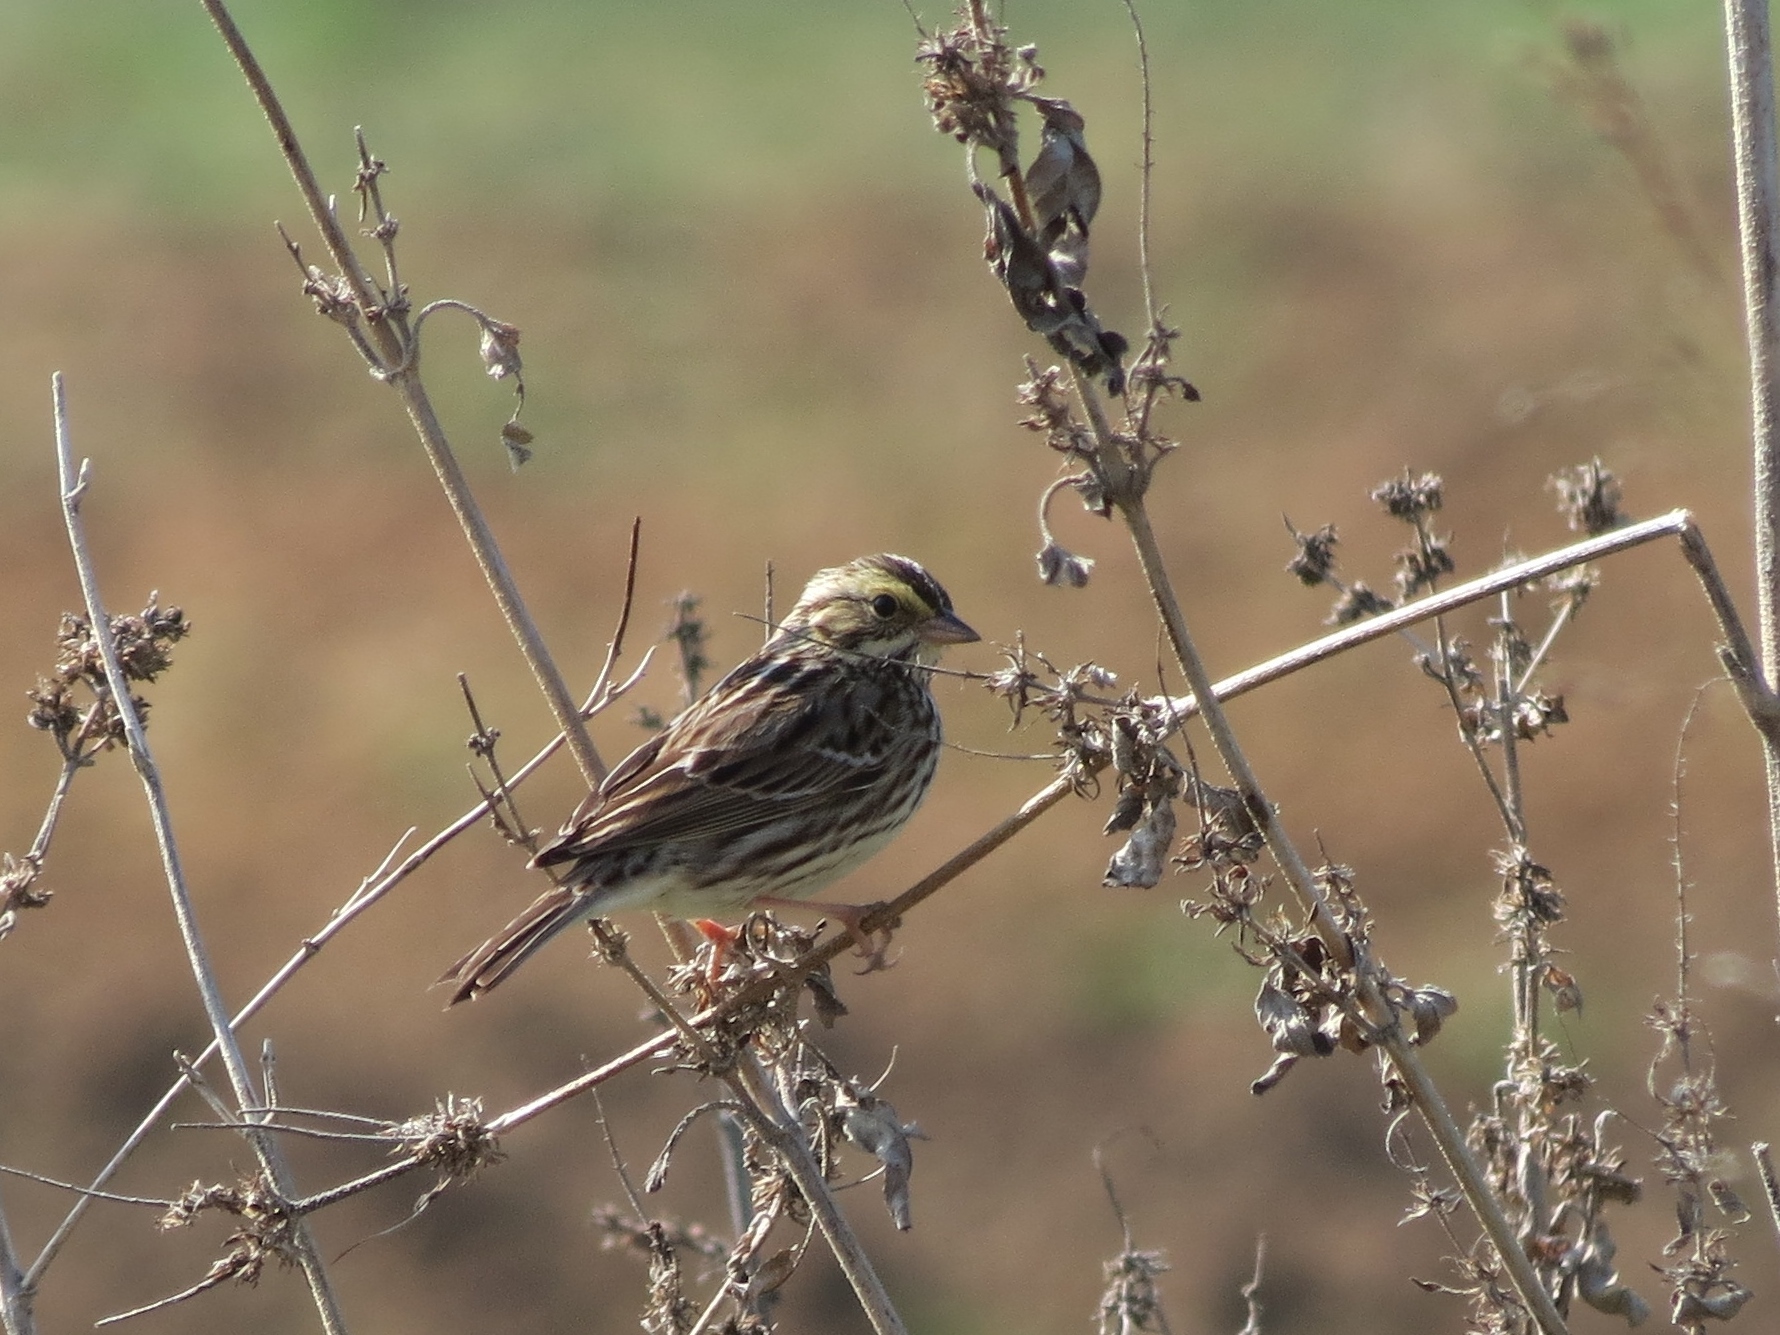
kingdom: Animalia
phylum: Chordata
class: Aves
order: Passeriformes
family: Passerellidae
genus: Passerculus
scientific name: Passerculus sandwichensis
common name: Savannah sparrow
